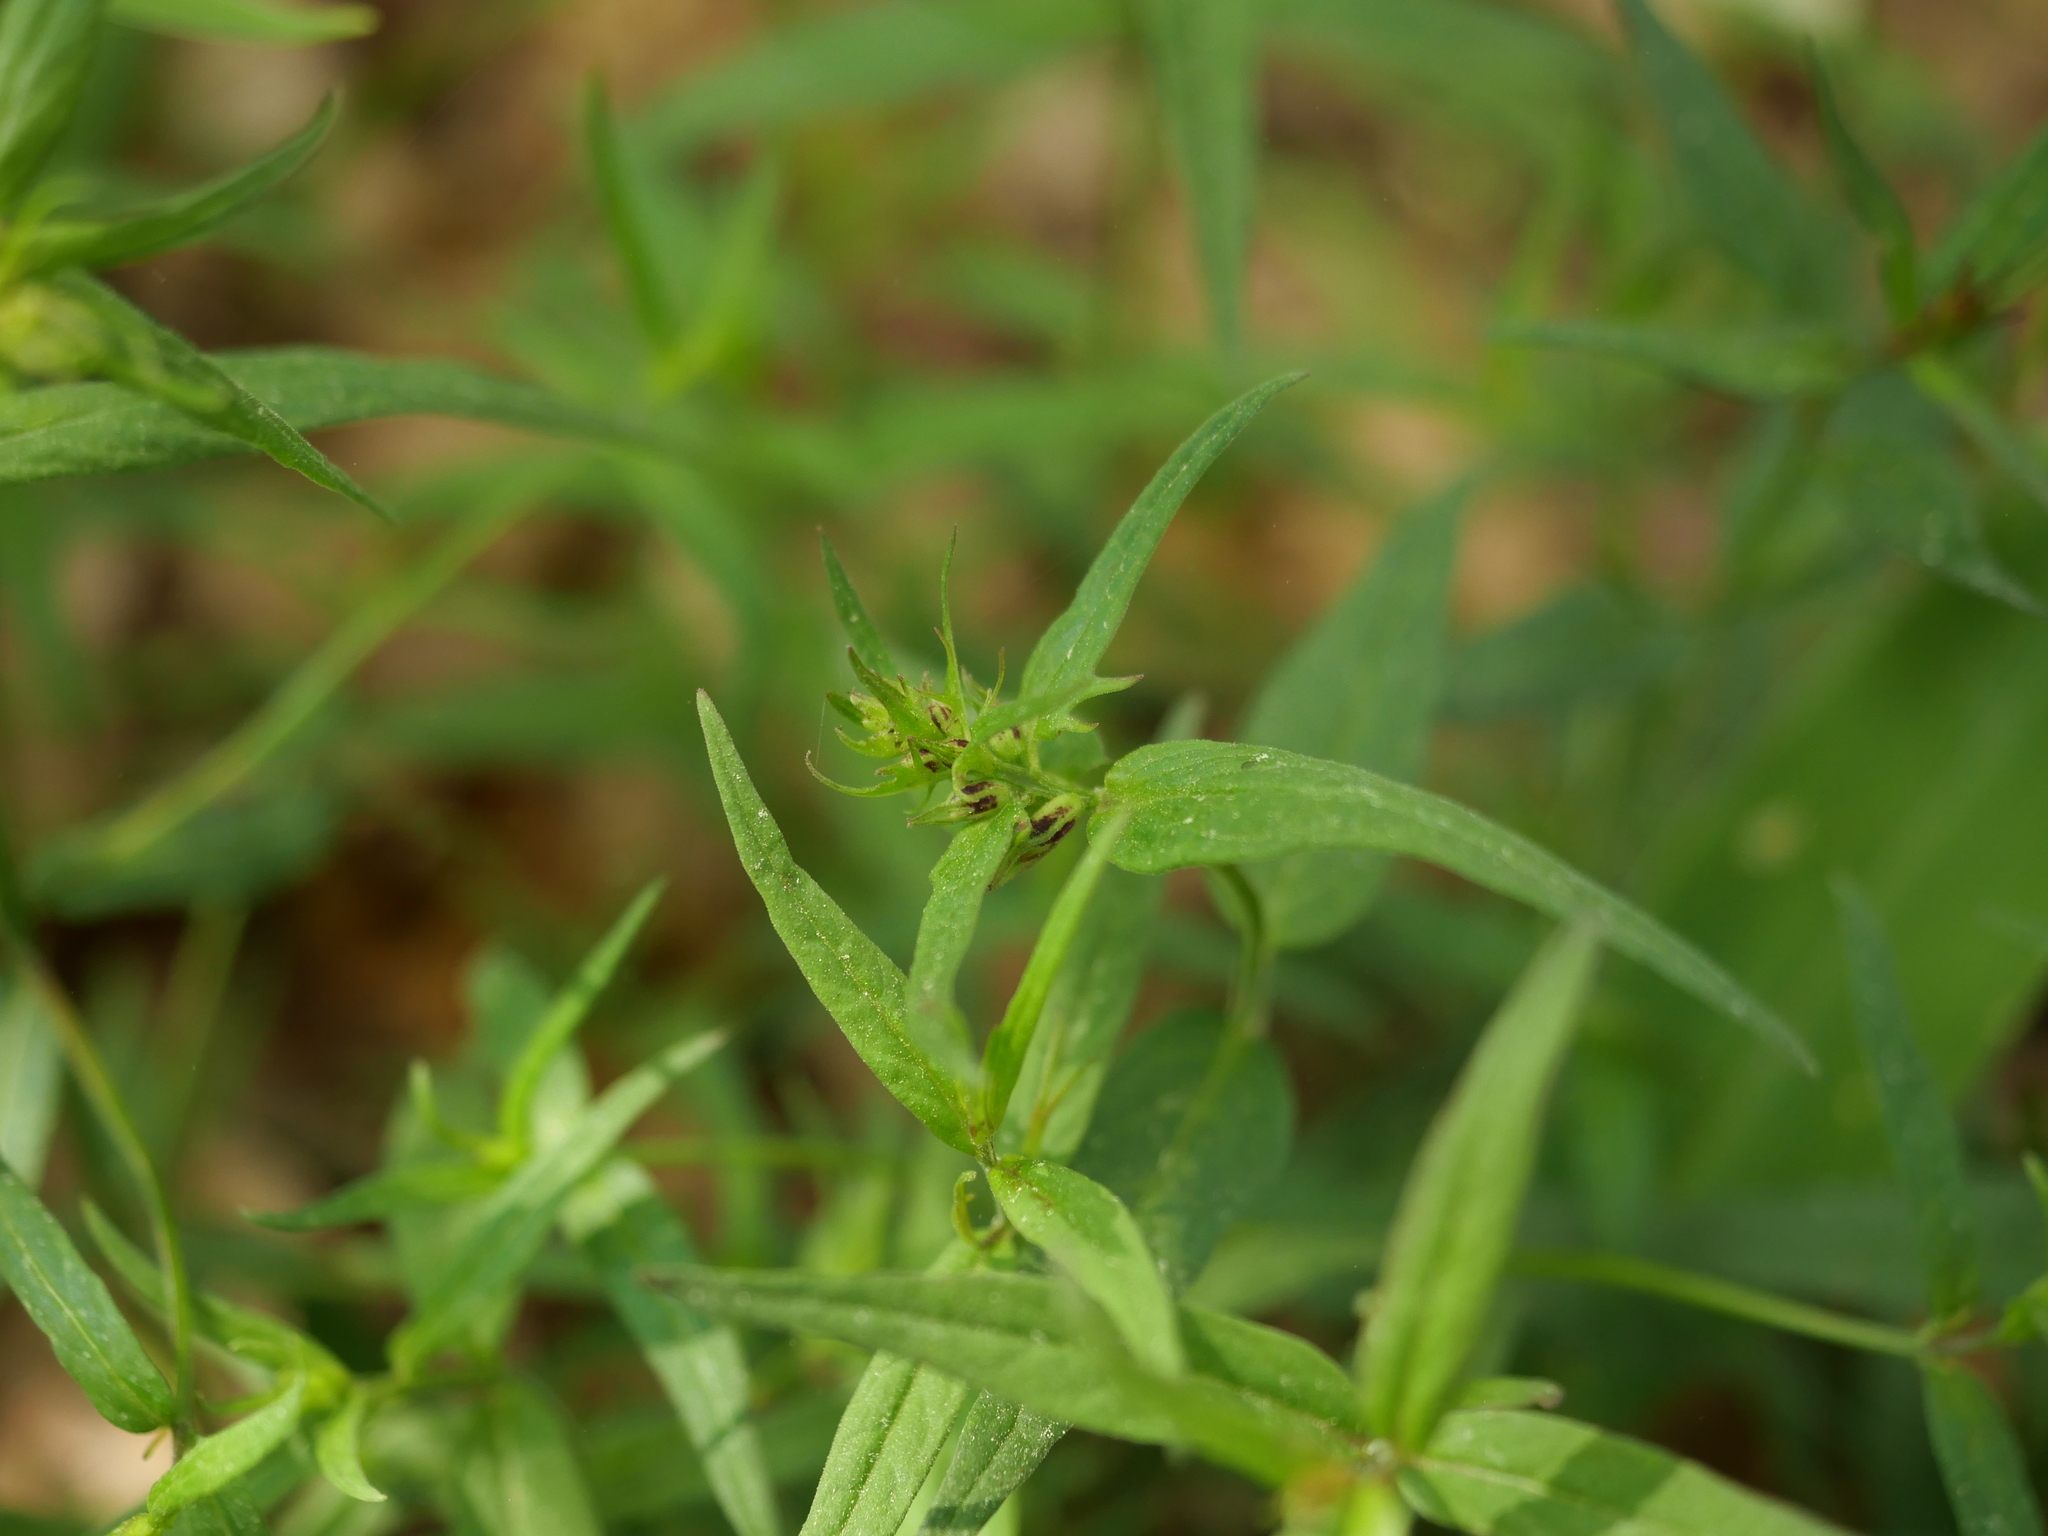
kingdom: Plantae
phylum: Tracheophyta
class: Magnoliopsida
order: Lamiales
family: Orobanchaceae
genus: Melampyrum
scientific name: Melampyrum pratense
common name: Common cow-wheat
